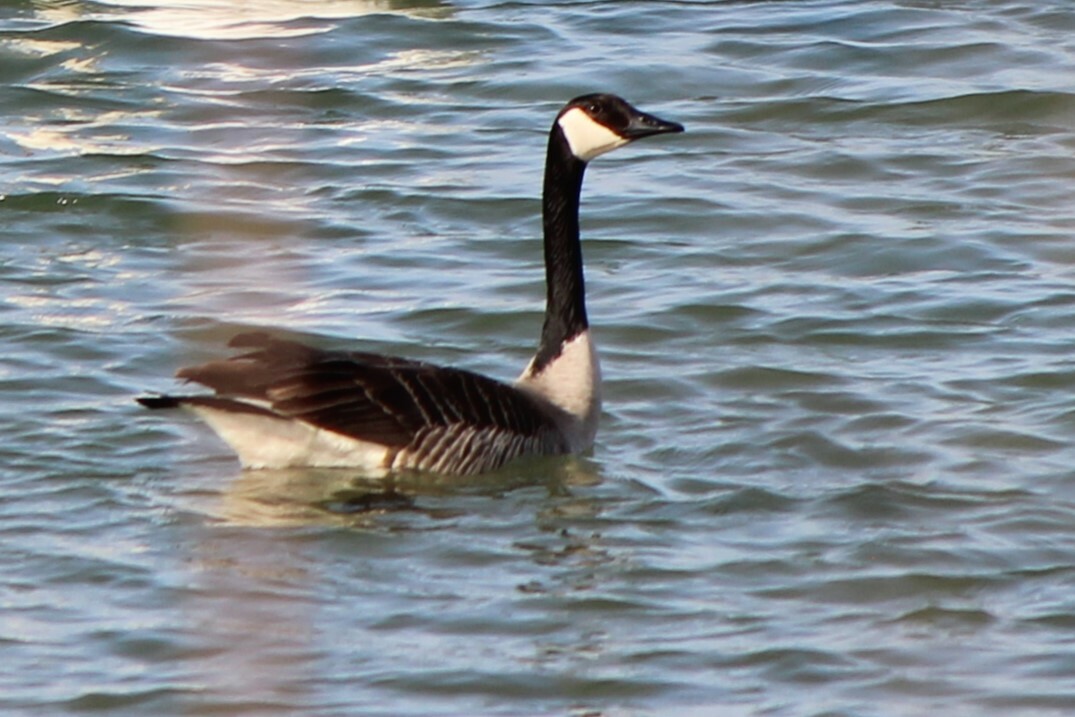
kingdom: Animalia
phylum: Chordata
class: Aves
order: Anseriformes
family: Anatidae
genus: Branta
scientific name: Branta canadensis
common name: Canada goose
